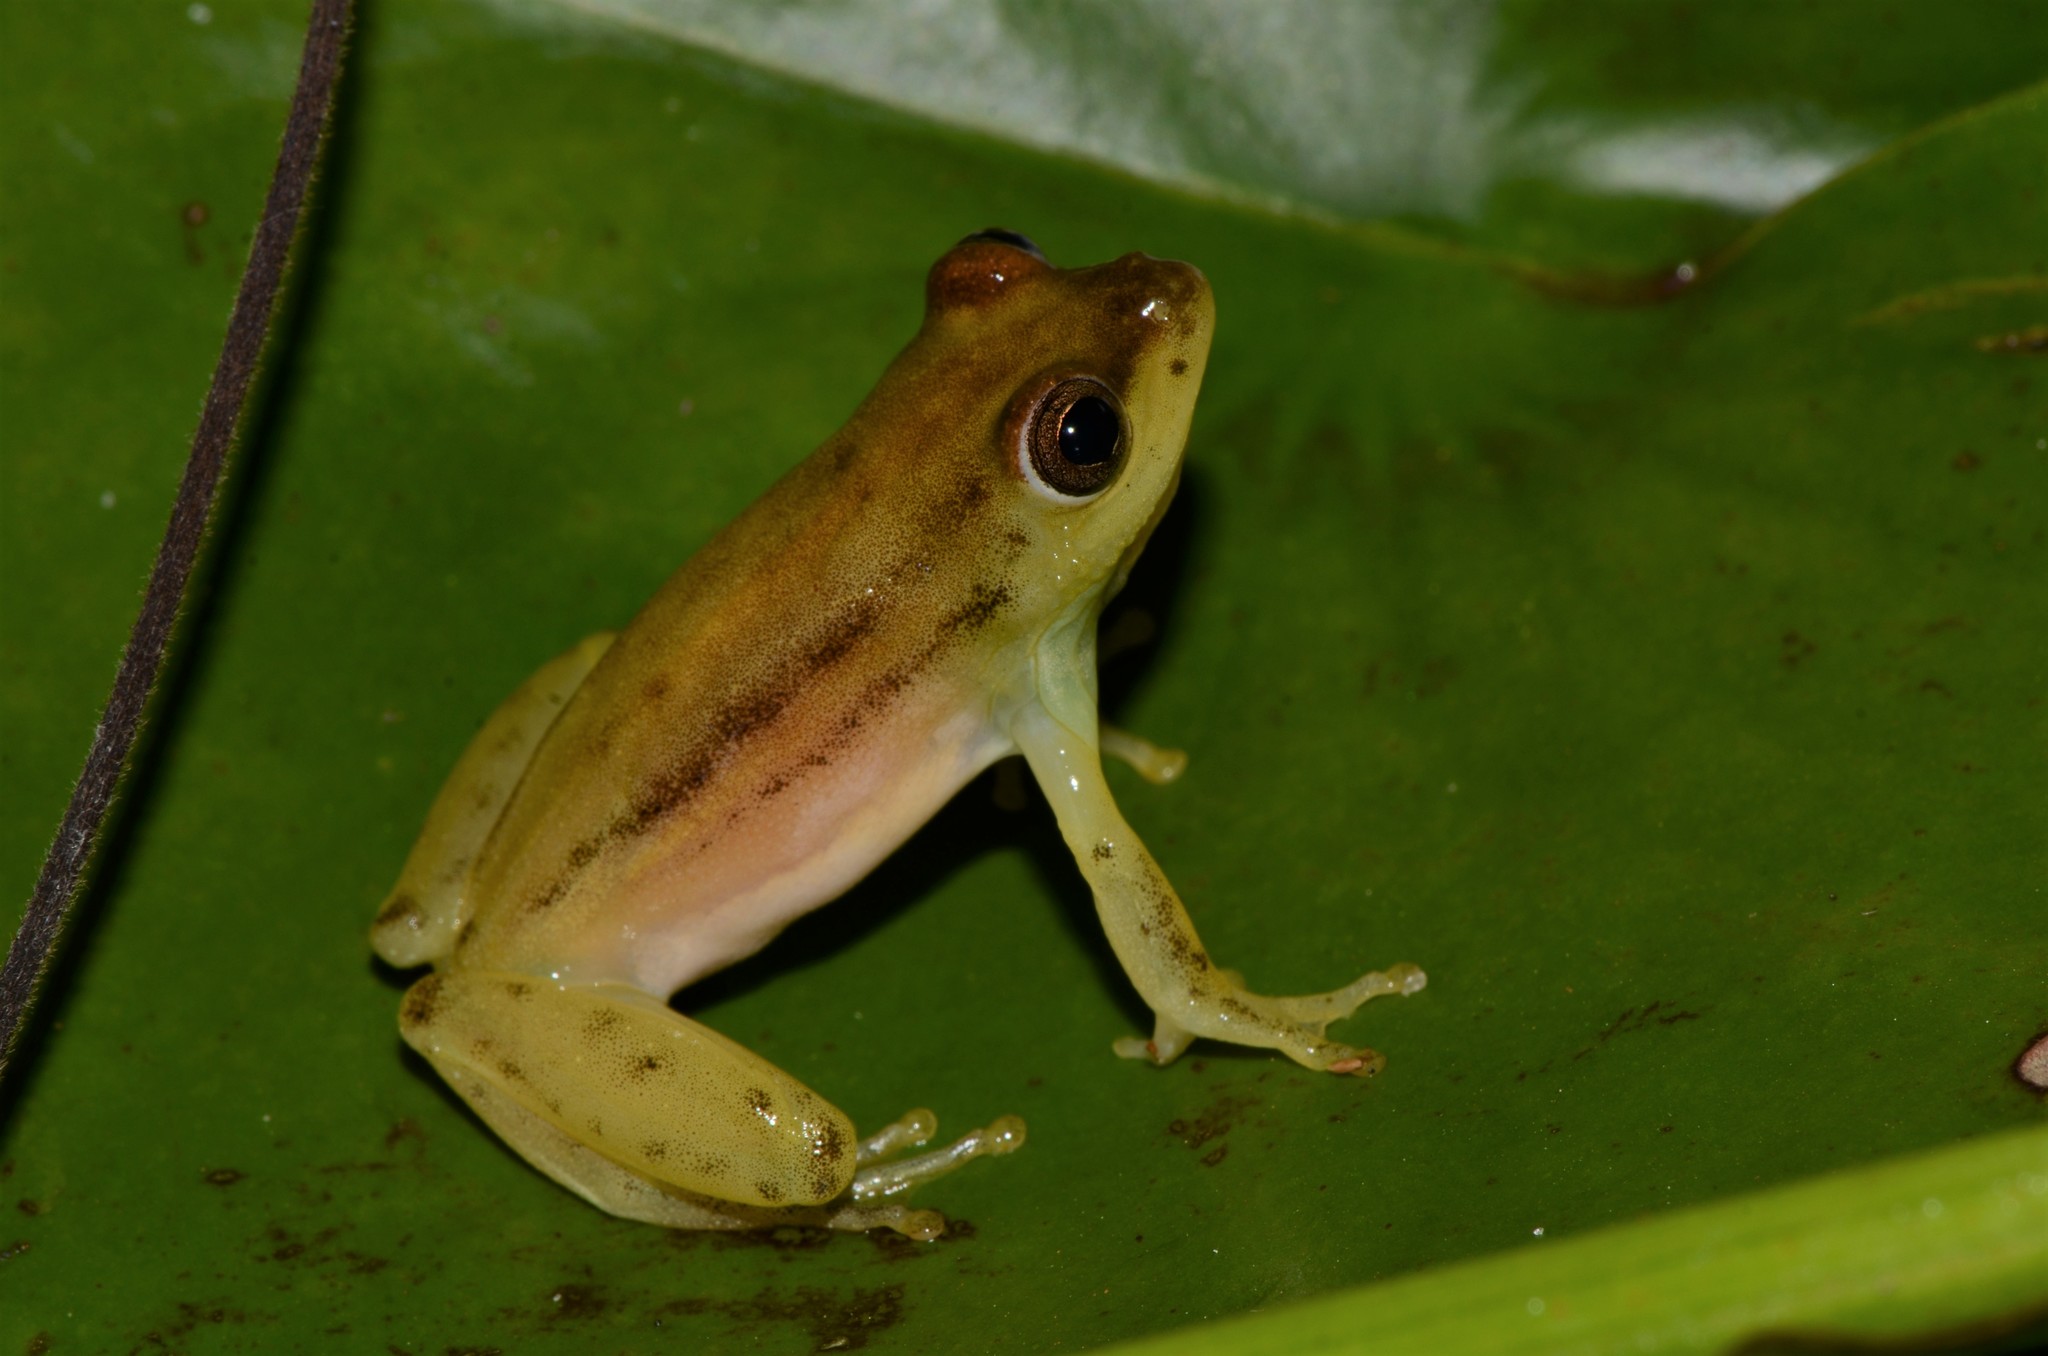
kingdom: Animalia
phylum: Chordata
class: Amphibia
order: Anura
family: Hyperoliidae
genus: Hyperolius
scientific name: Hyperolius argus
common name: Argus reed frog
